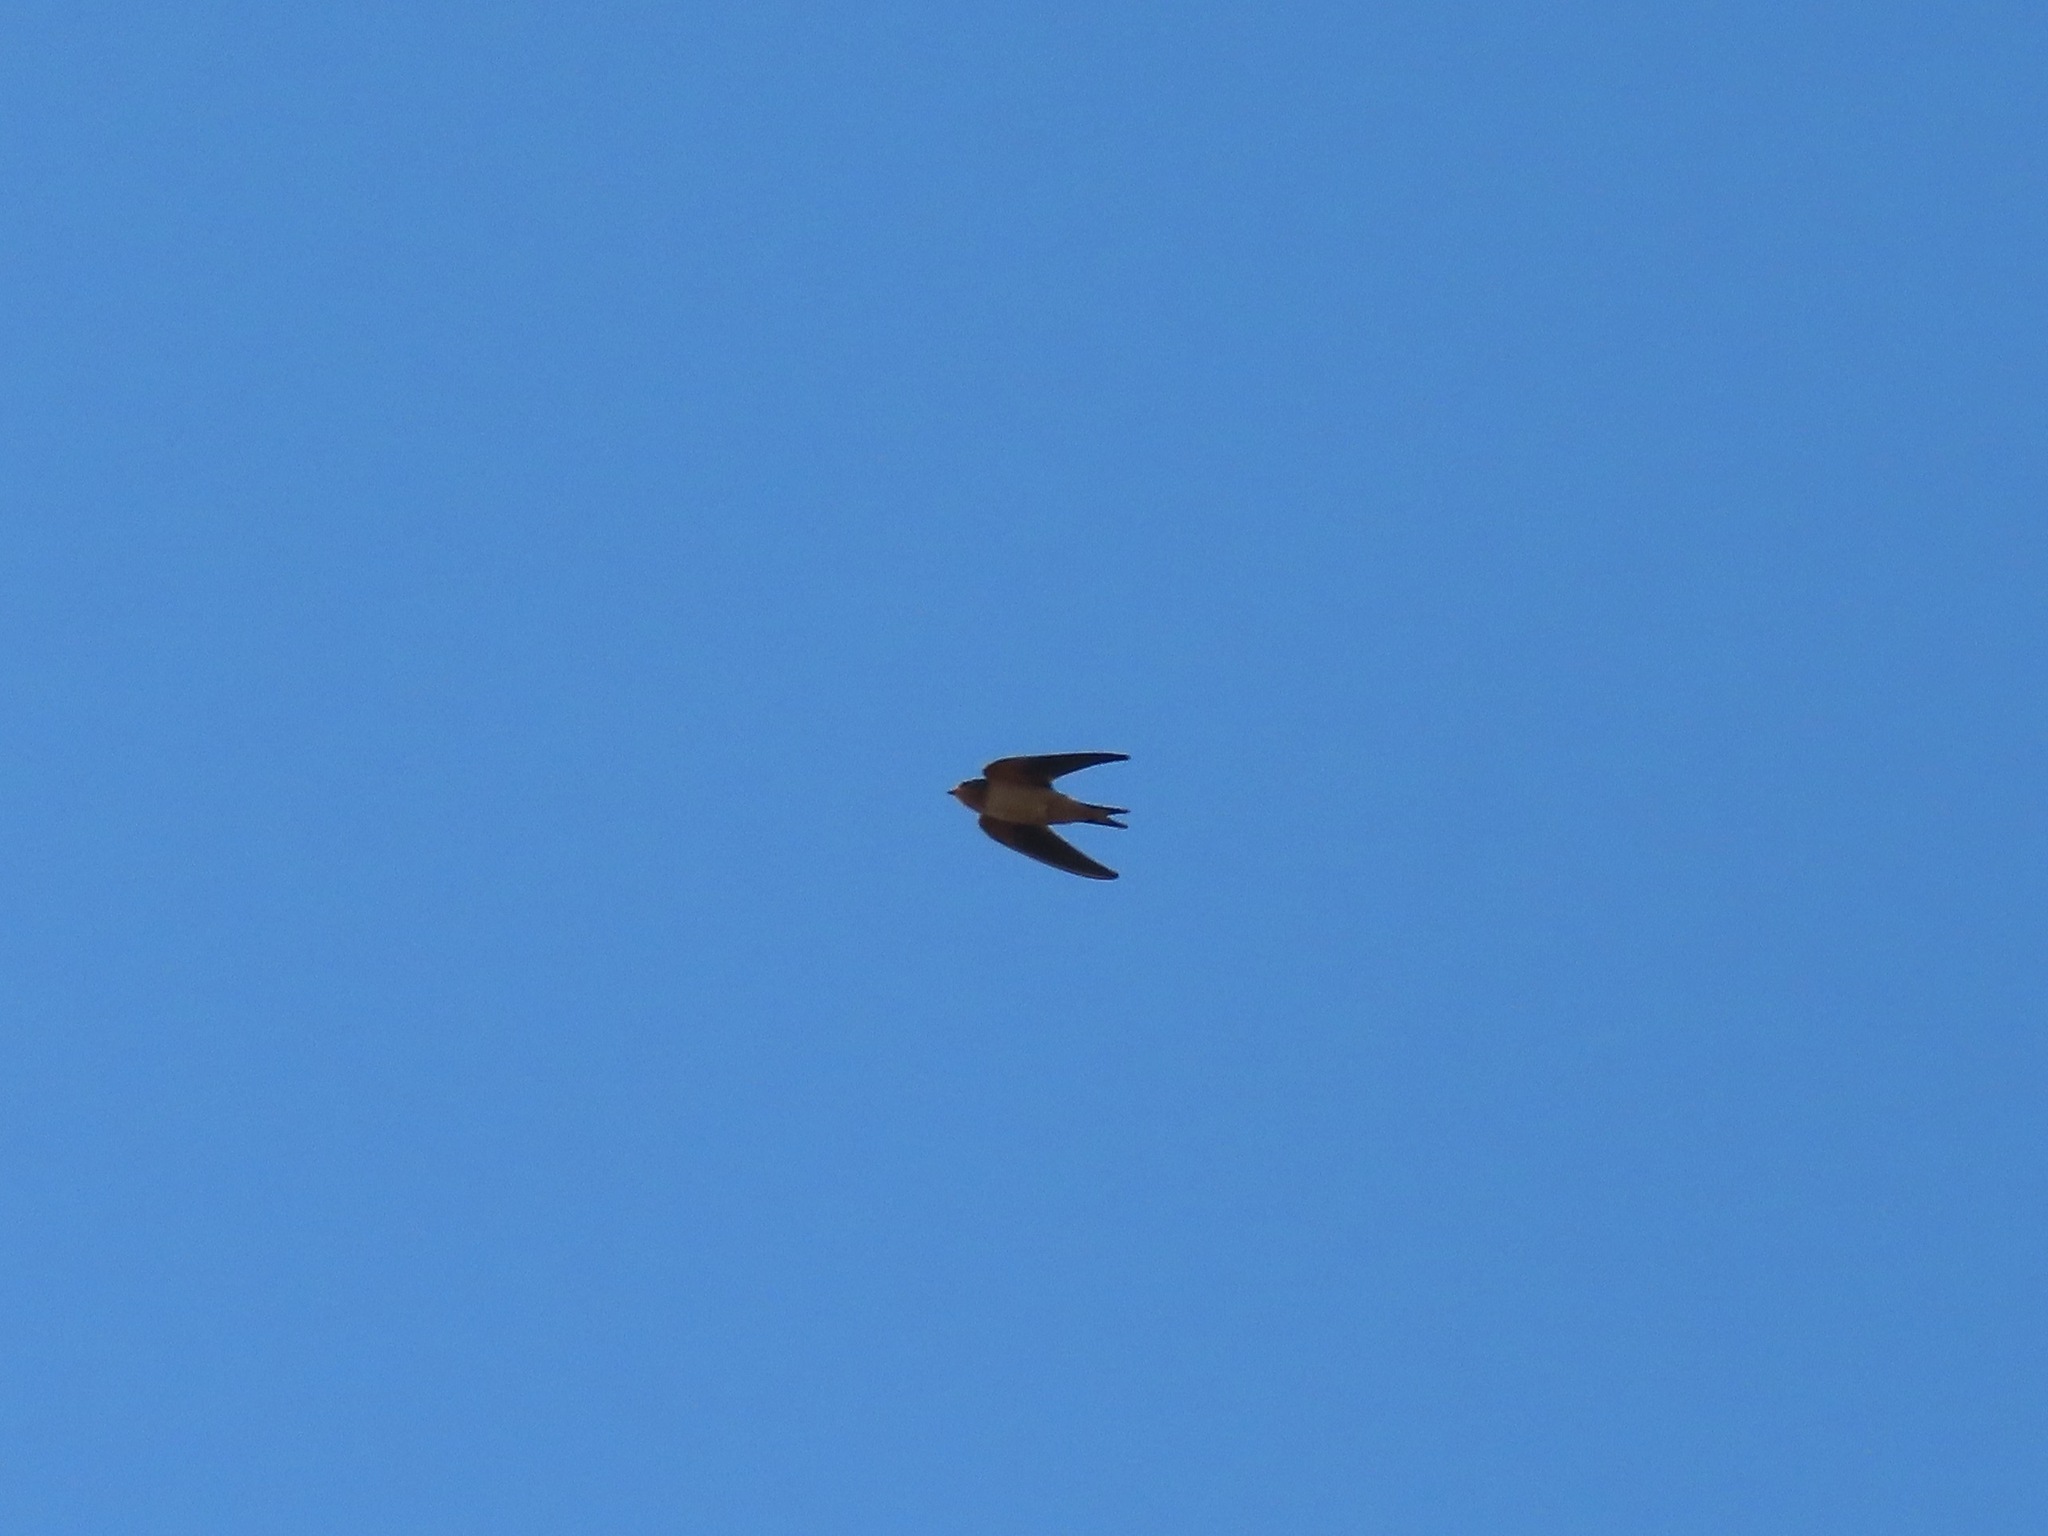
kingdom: Animalia
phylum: Chordata
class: Aves
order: Passeriformes
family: Hirundinidae
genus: Hirundo
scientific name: Hirundo rustica
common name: Barn swallow
